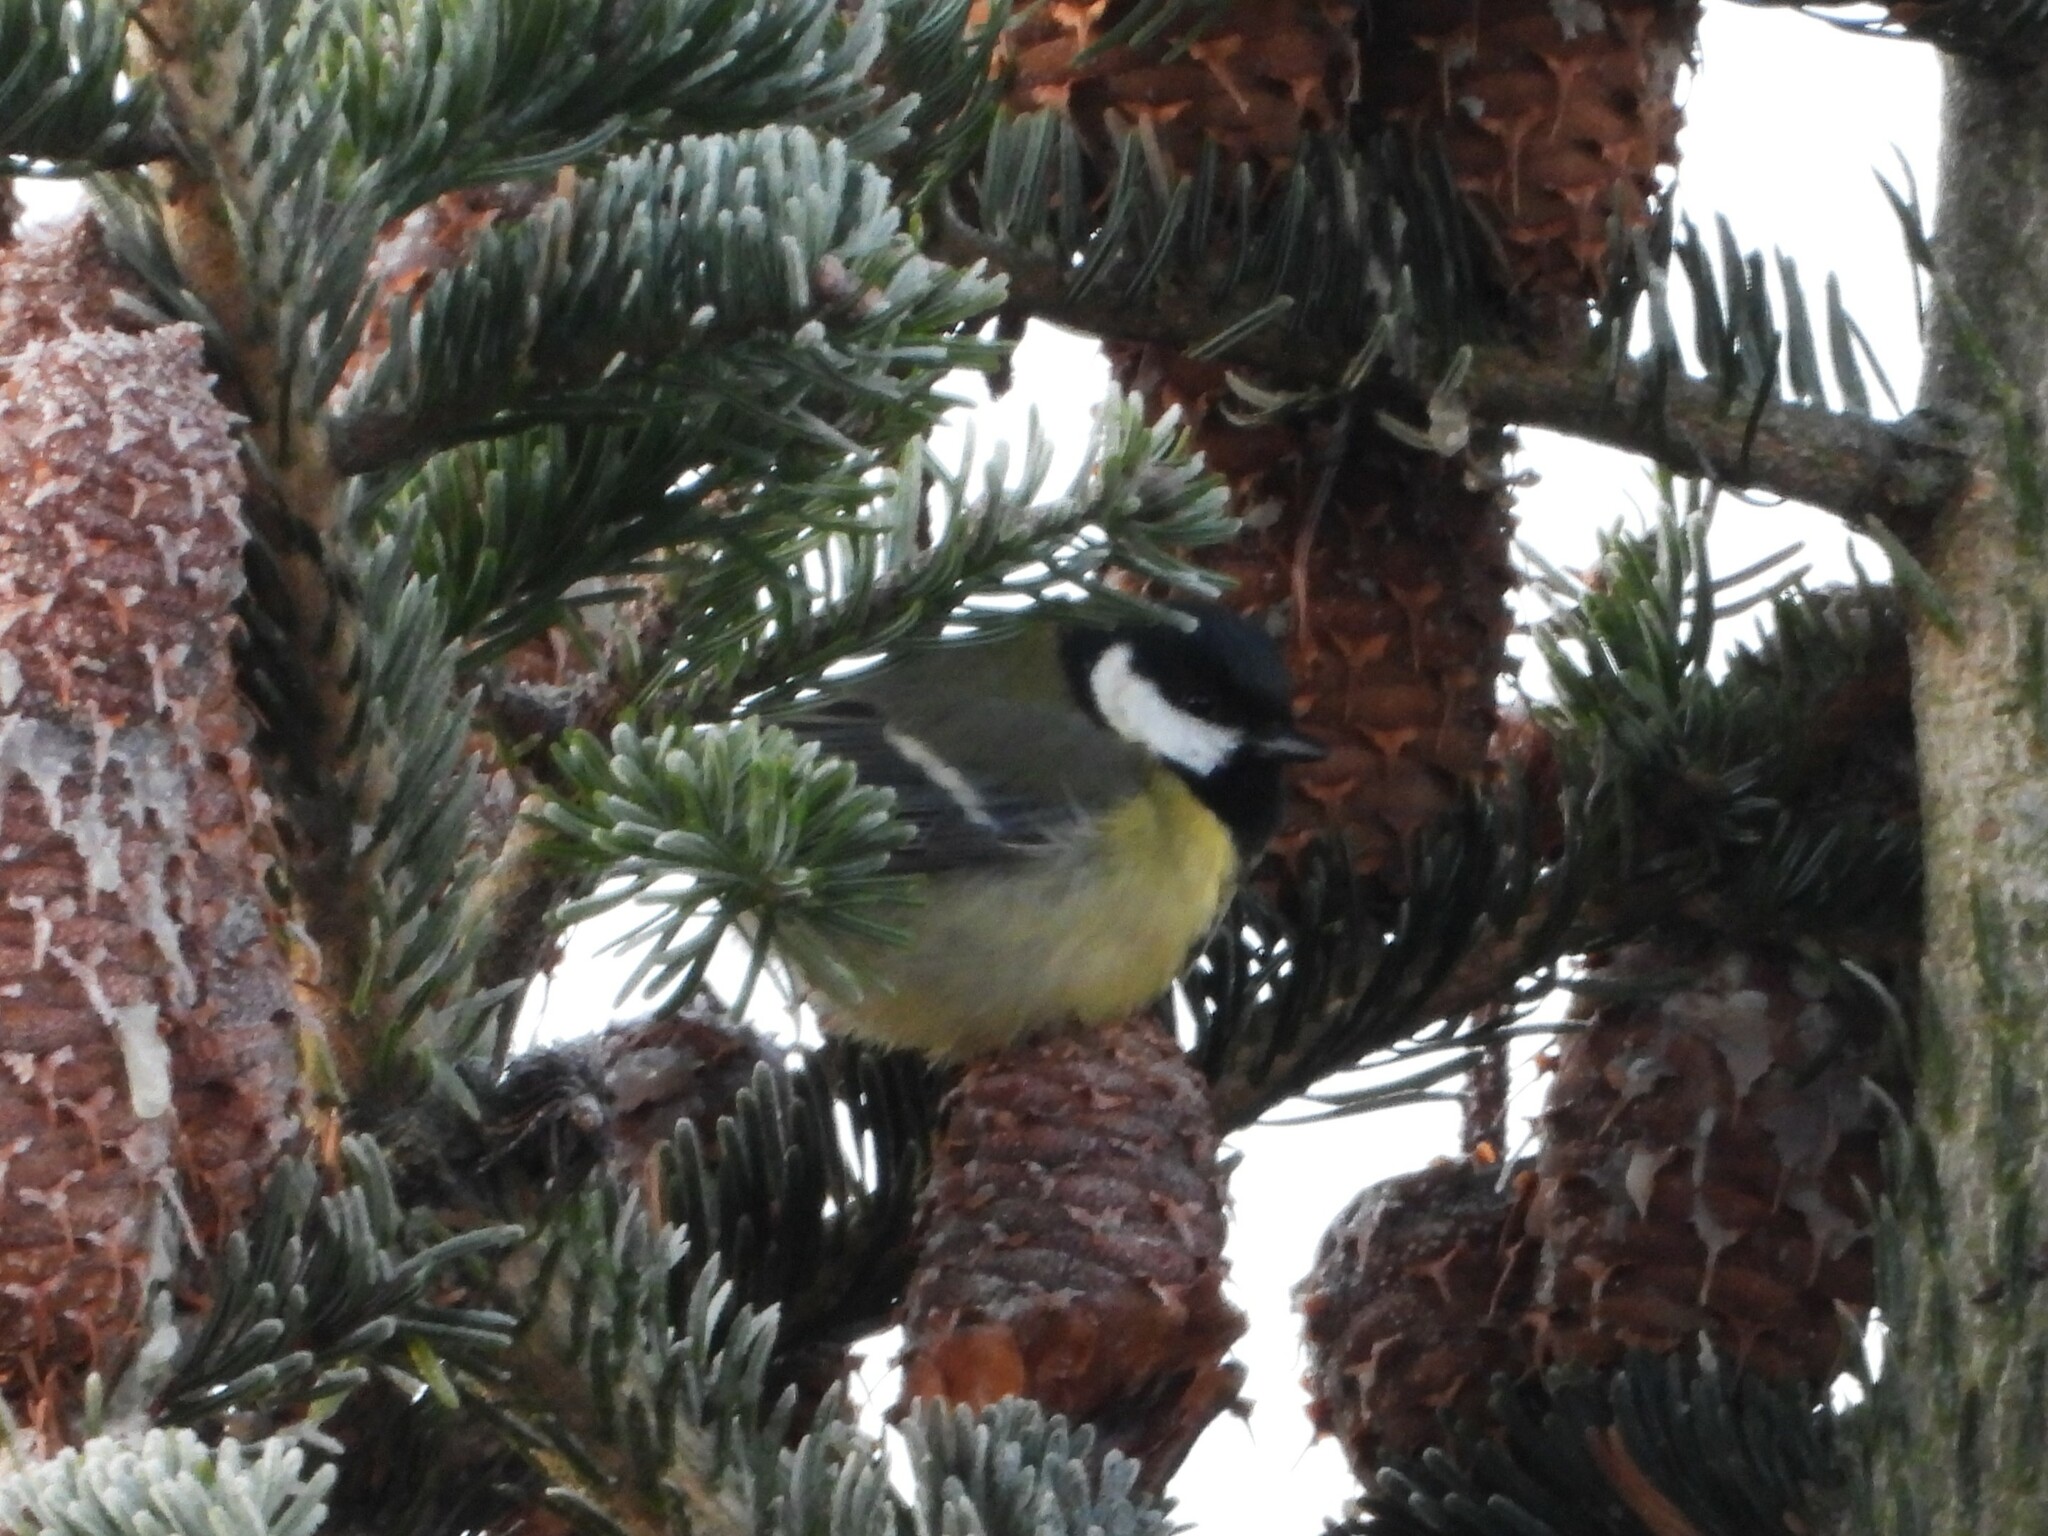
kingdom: Animalia
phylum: Chordata
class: Aves
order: Passeriformes
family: Paridae
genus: Parus
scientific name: Parus major
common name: Great tit
